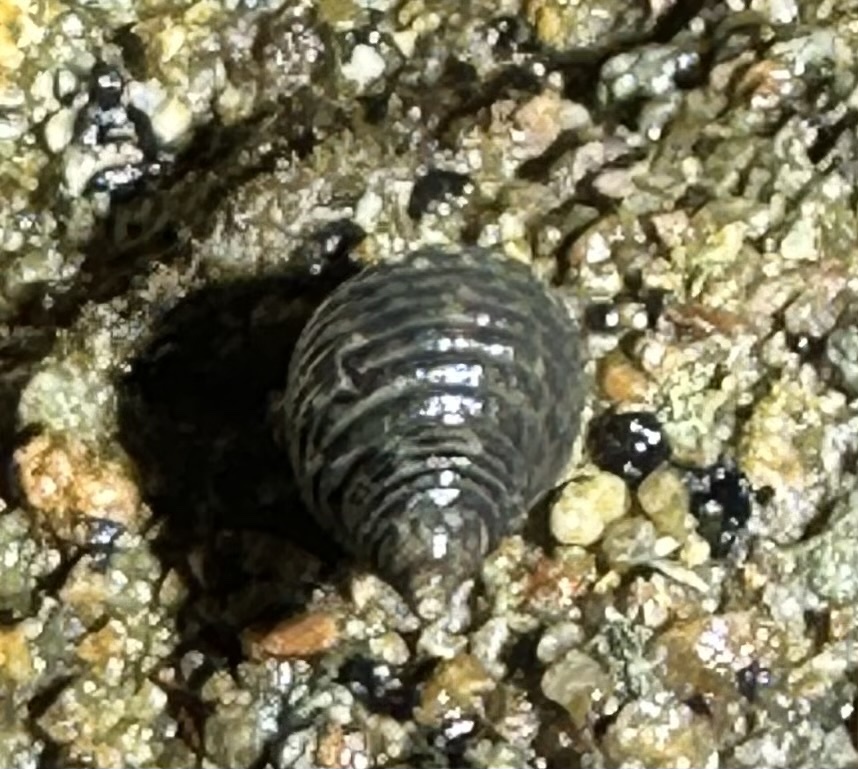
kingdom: Animalia
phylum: Mollusca
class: Gastropoda
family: Planaxidae
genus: Planaxis
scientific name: Planaxis sulcatus
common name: Furrowed planaxis
